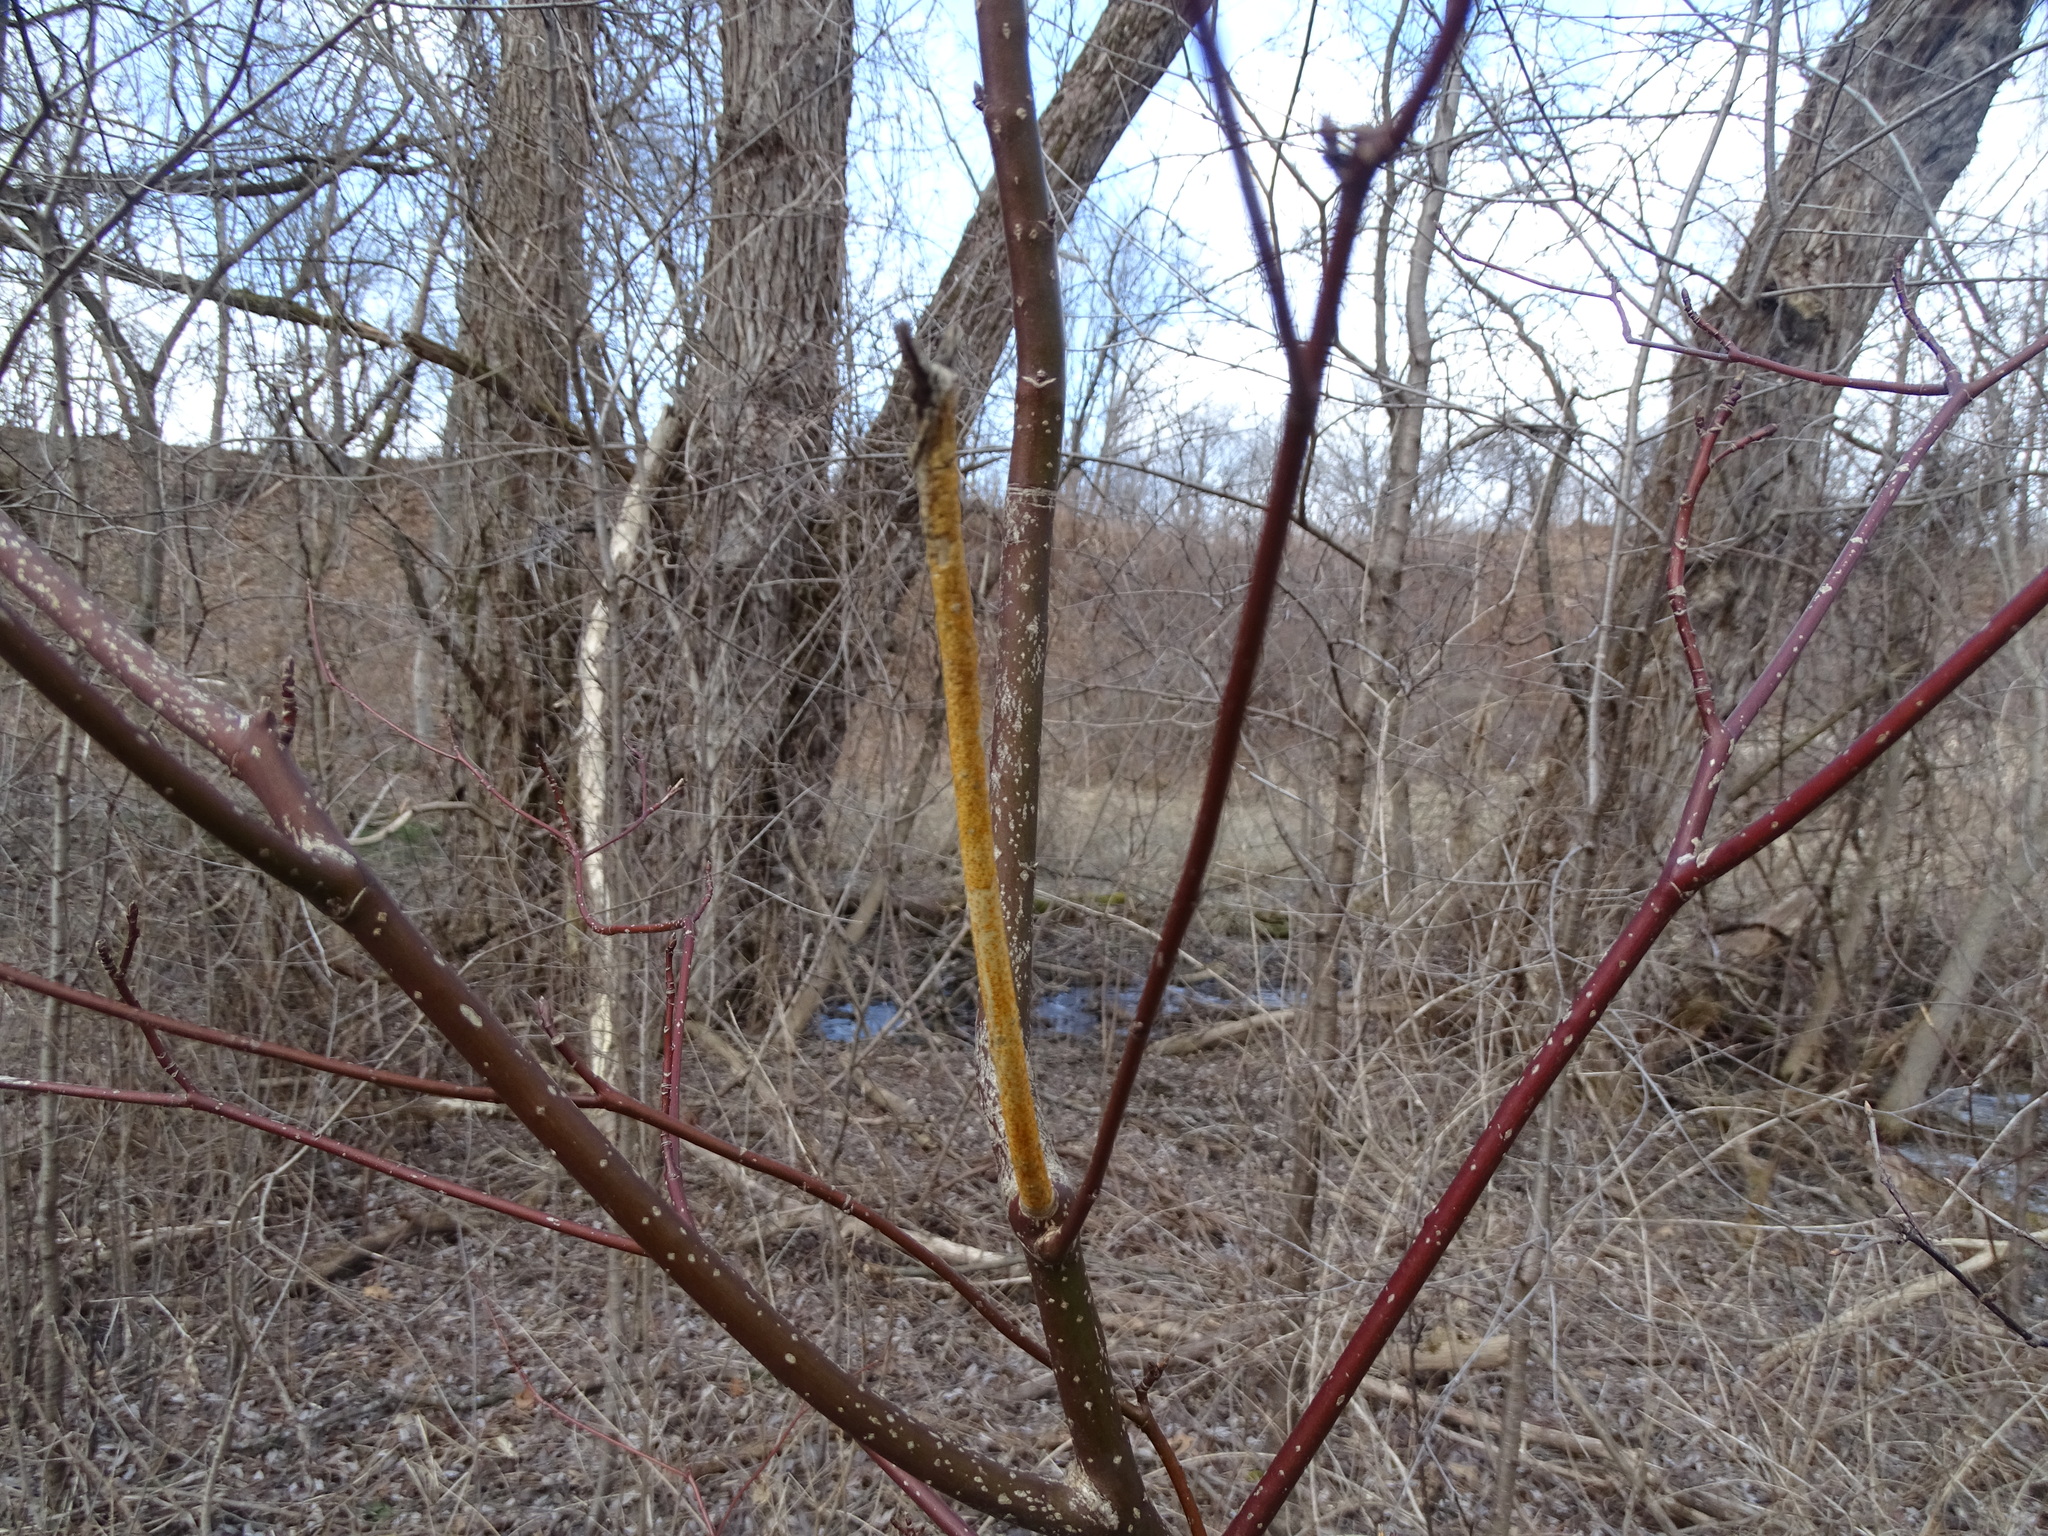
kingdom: Fungi
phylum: Ascomycota
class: Sordariomycetes
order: Diaporthales
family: Cryphonectriaceae
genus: Aurantioporthe
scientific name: Aurantioporthe corni
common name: Dogwood golden canker
